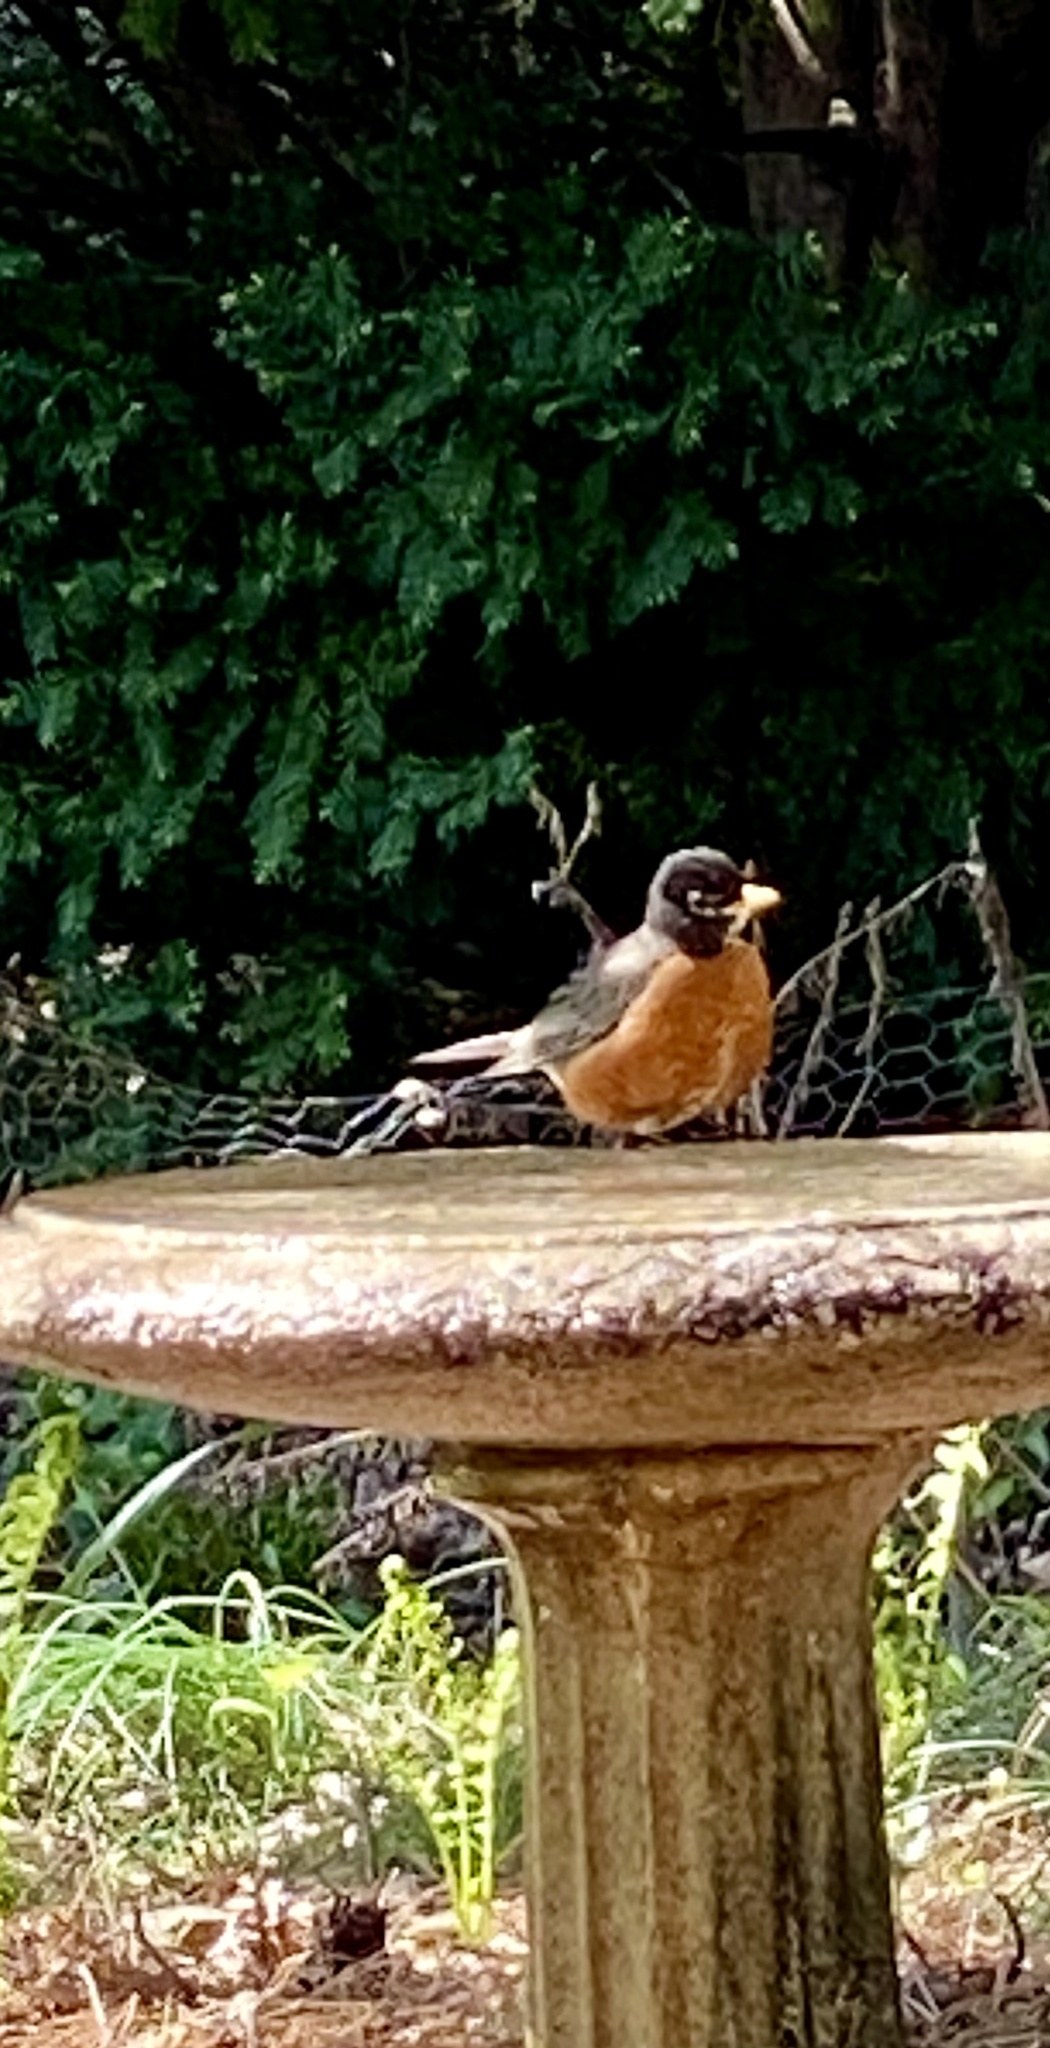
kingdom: Animalia
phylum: Chordata
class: Aves
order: Passeriformes
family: Turdidae
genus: Turdus
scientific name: Turdus migratorius
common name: American robin
